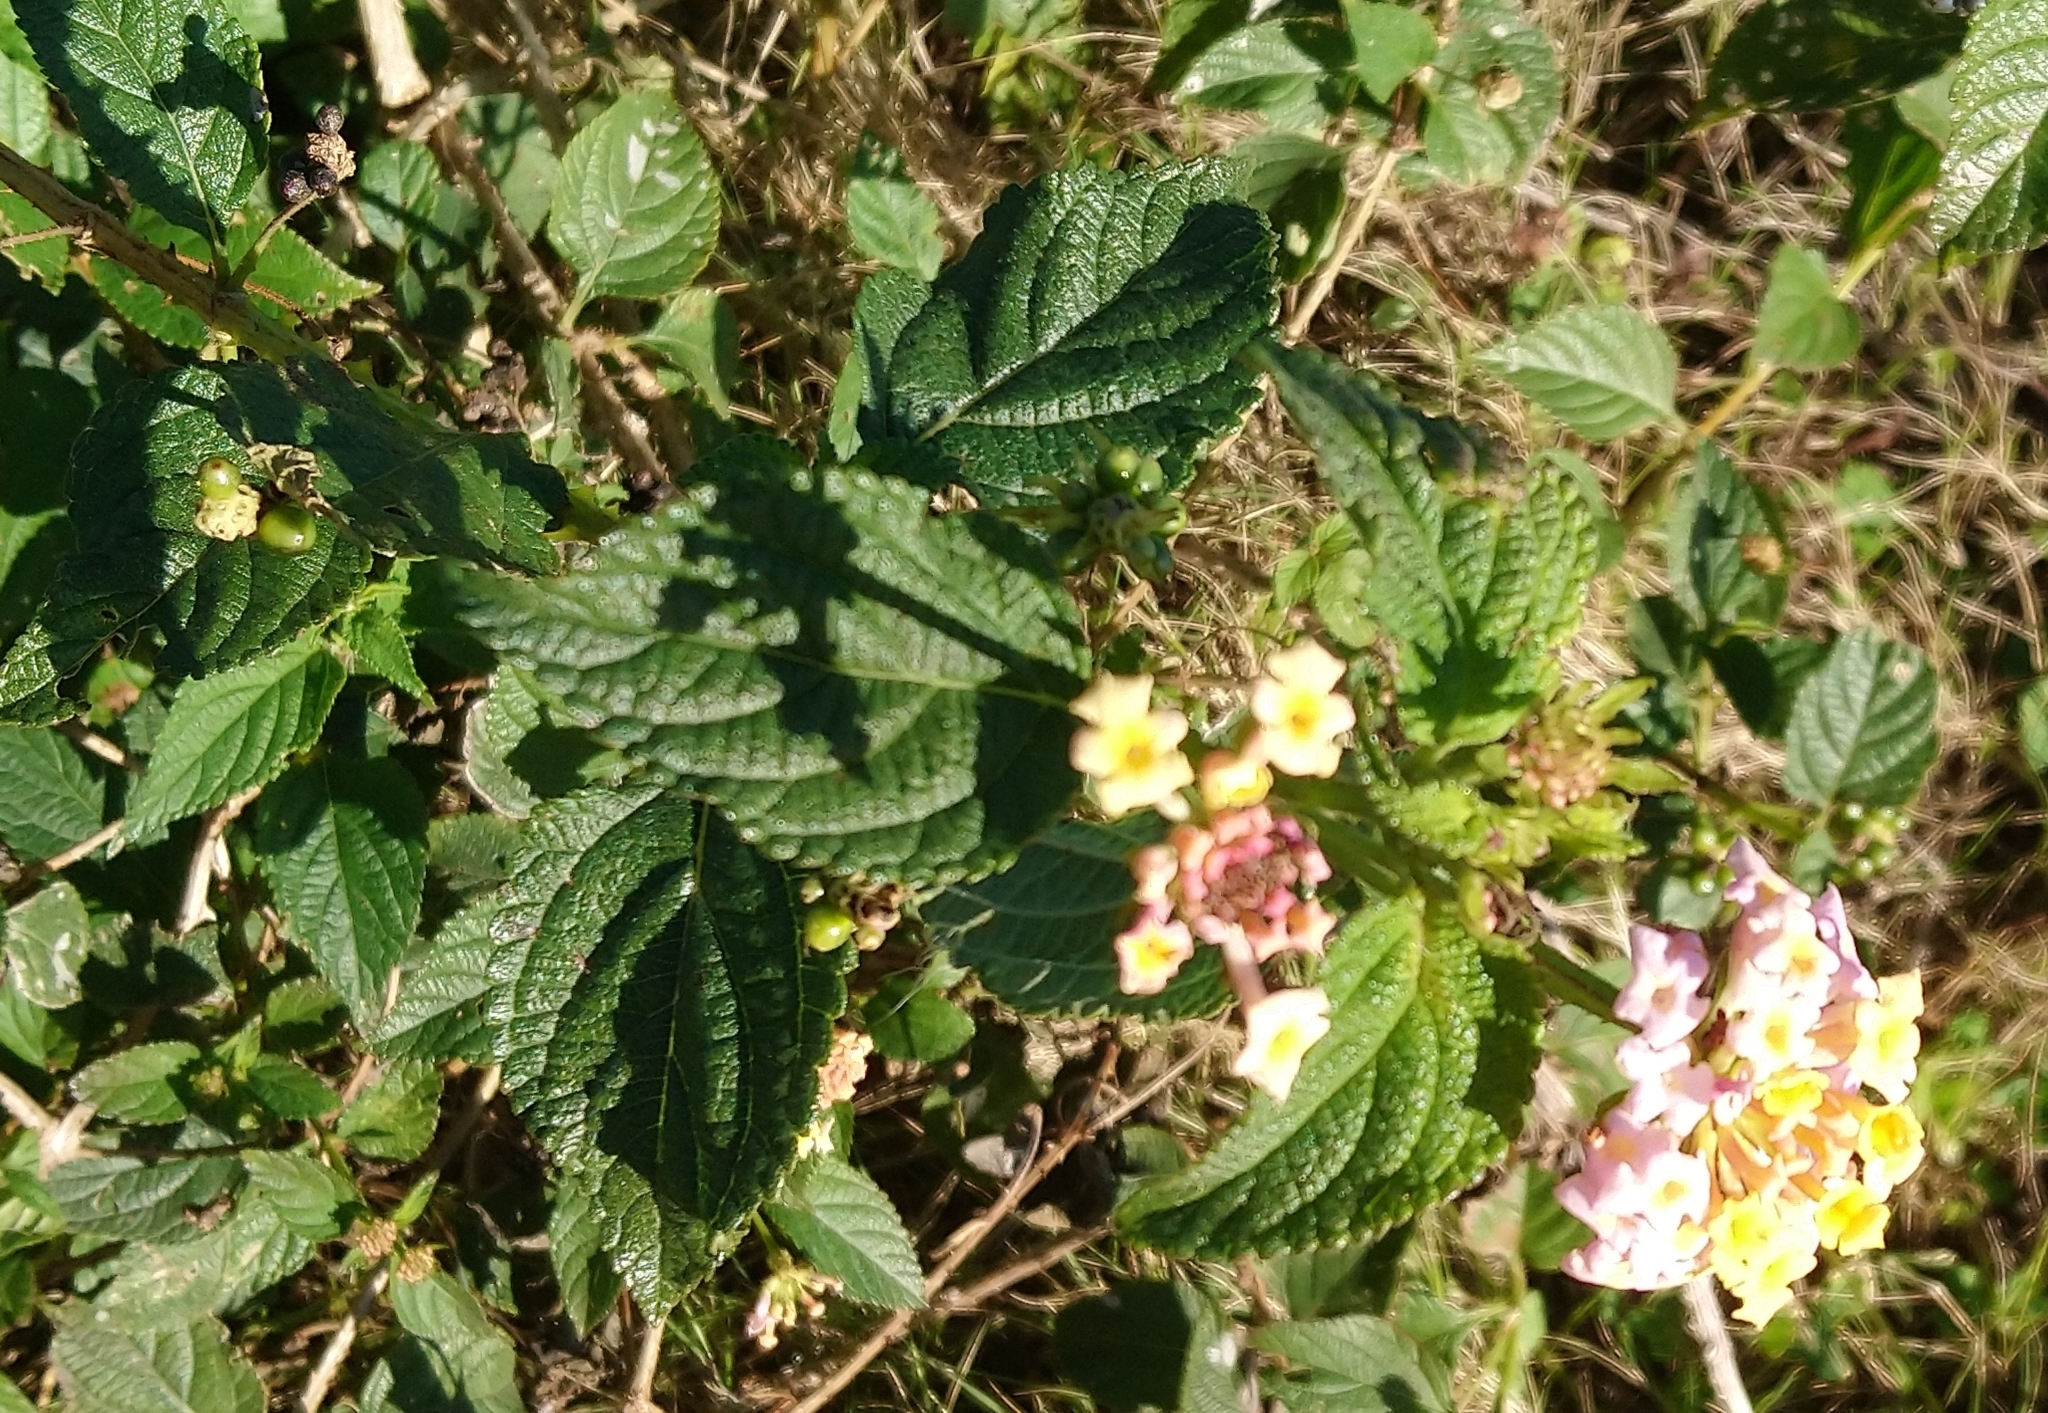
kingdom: Plantae
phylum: Tracheophyta
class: Magnoliopsida
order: Lamiales
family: Verbenaceae
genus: Lantana
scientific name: Lantana camara
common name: Lantana
